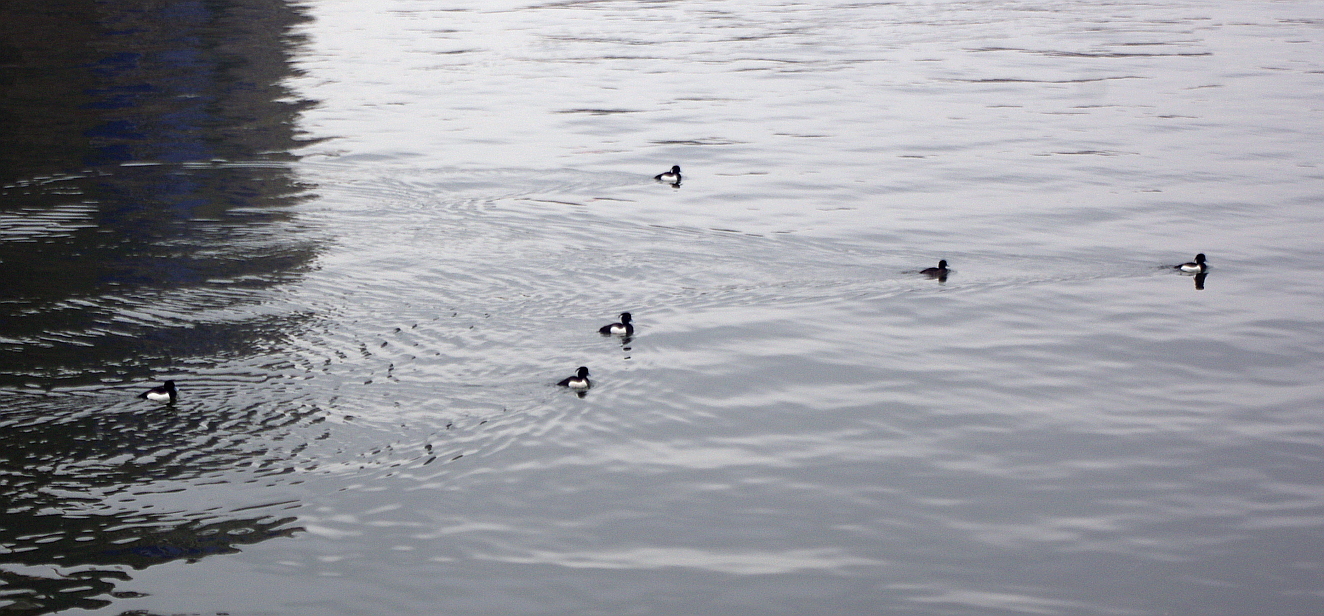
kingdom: Animalia
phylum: Chordata
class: Aves
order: Anseriformes
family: Anatidae
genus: Aythya
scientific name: Aythya fuligula
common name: Tufted duck
